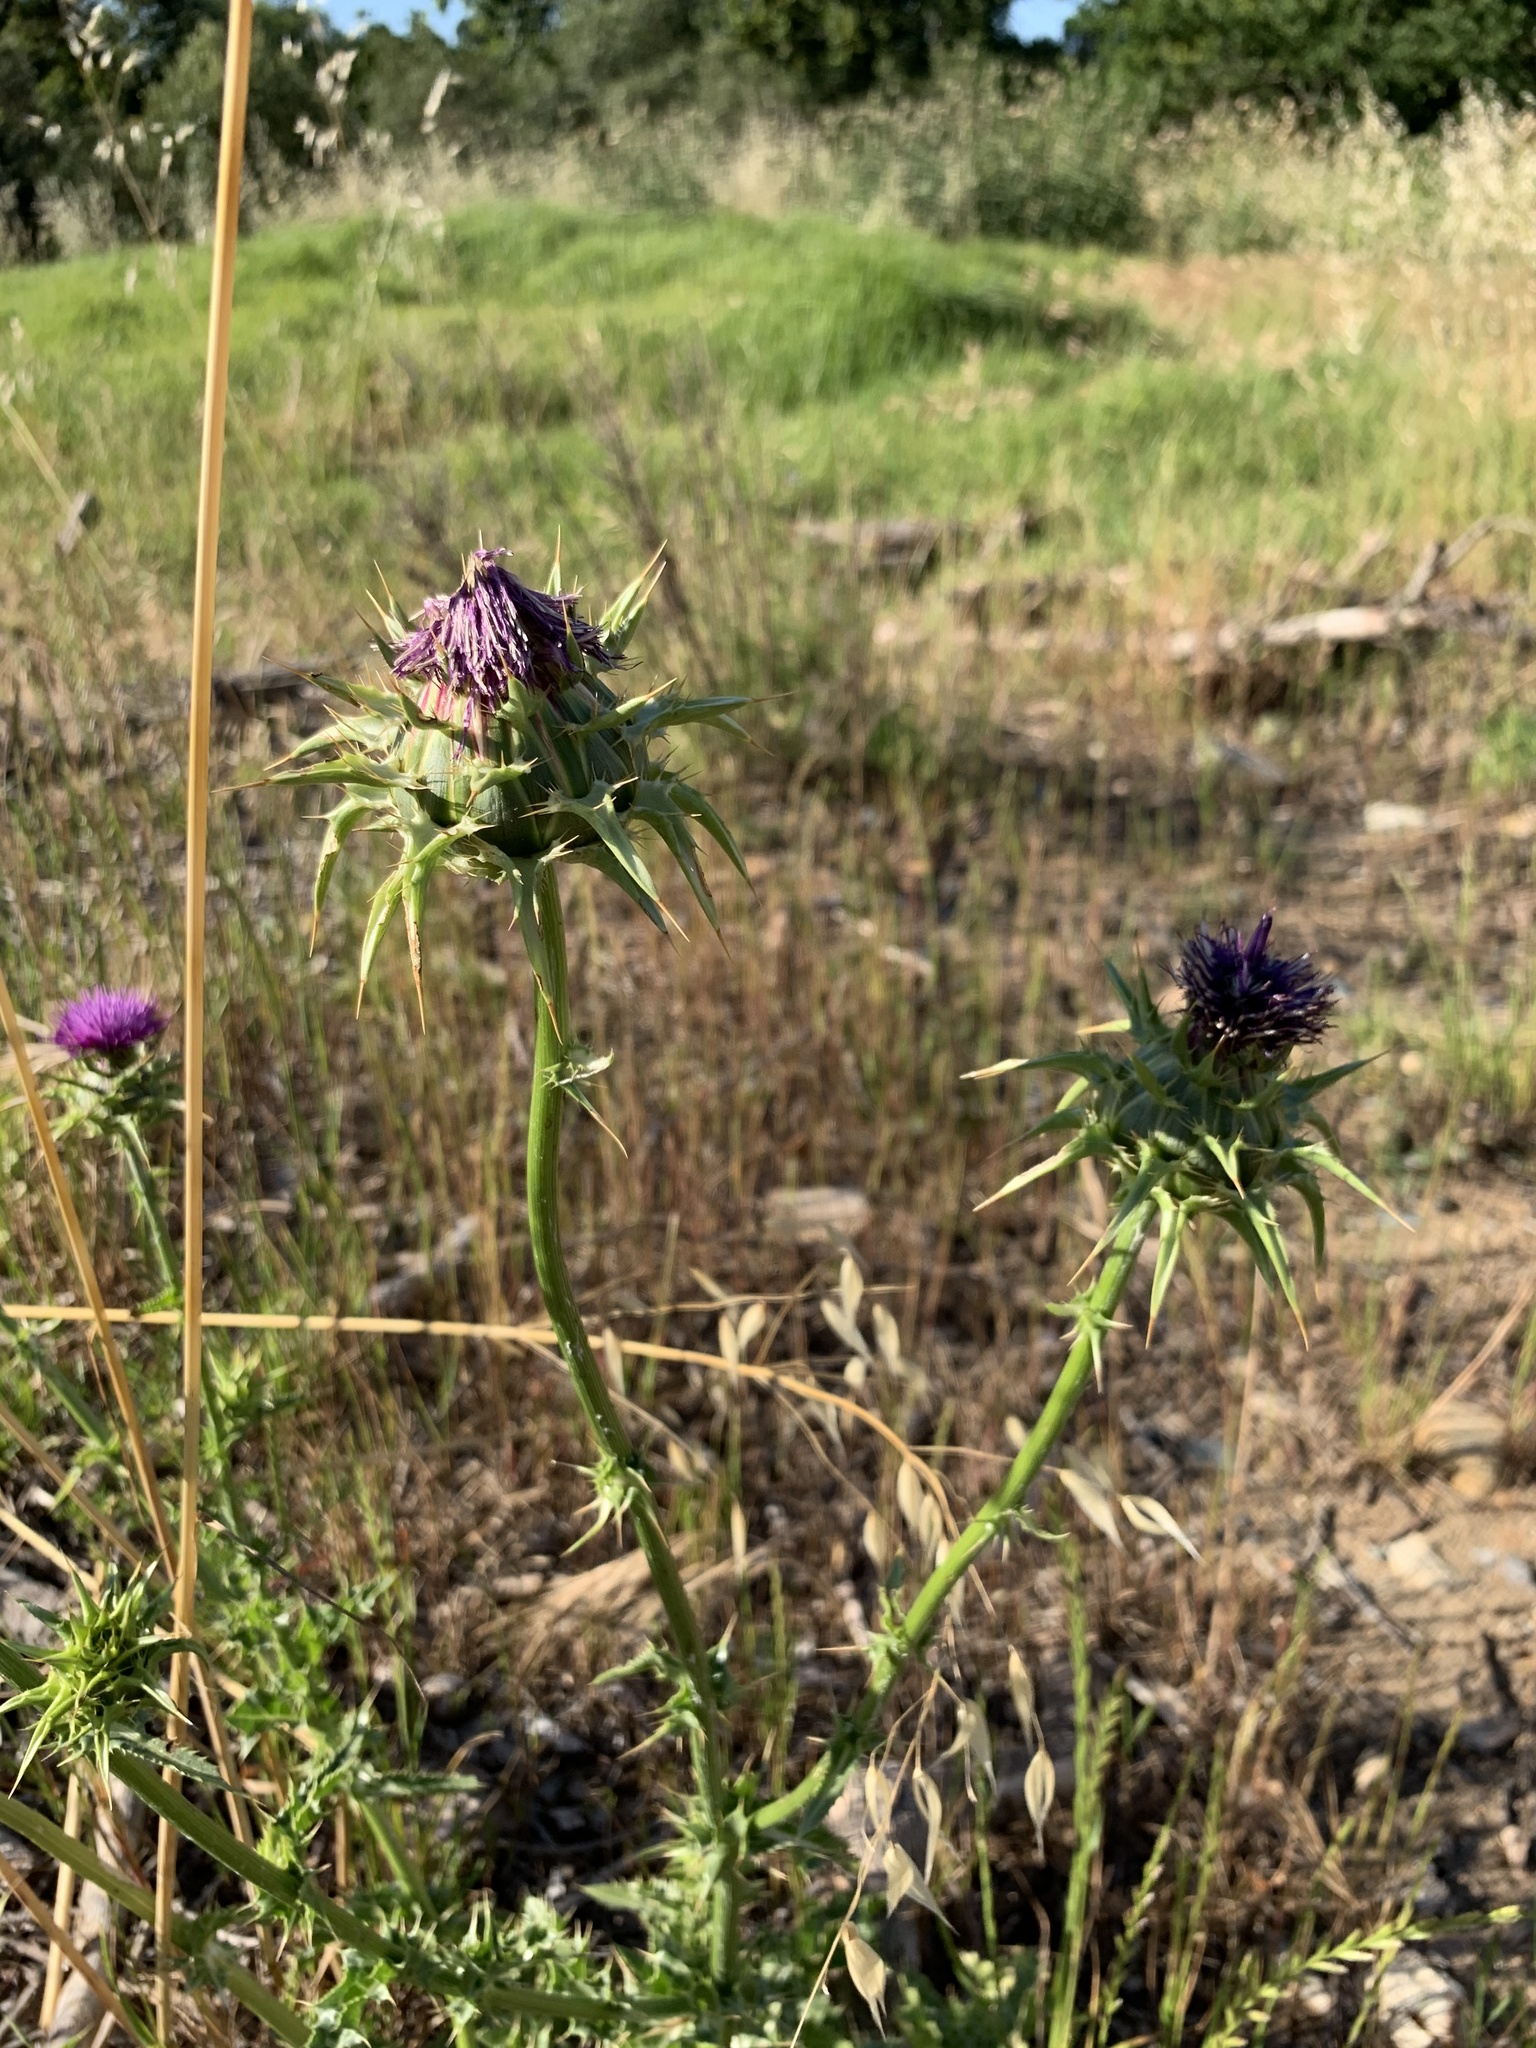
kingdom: Plantae
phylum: Tracheophyta
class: Magnoliopsida
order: Asterales
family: Asteraceae
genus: Silybum
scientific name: Silybum marianum
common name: Milk thistle
